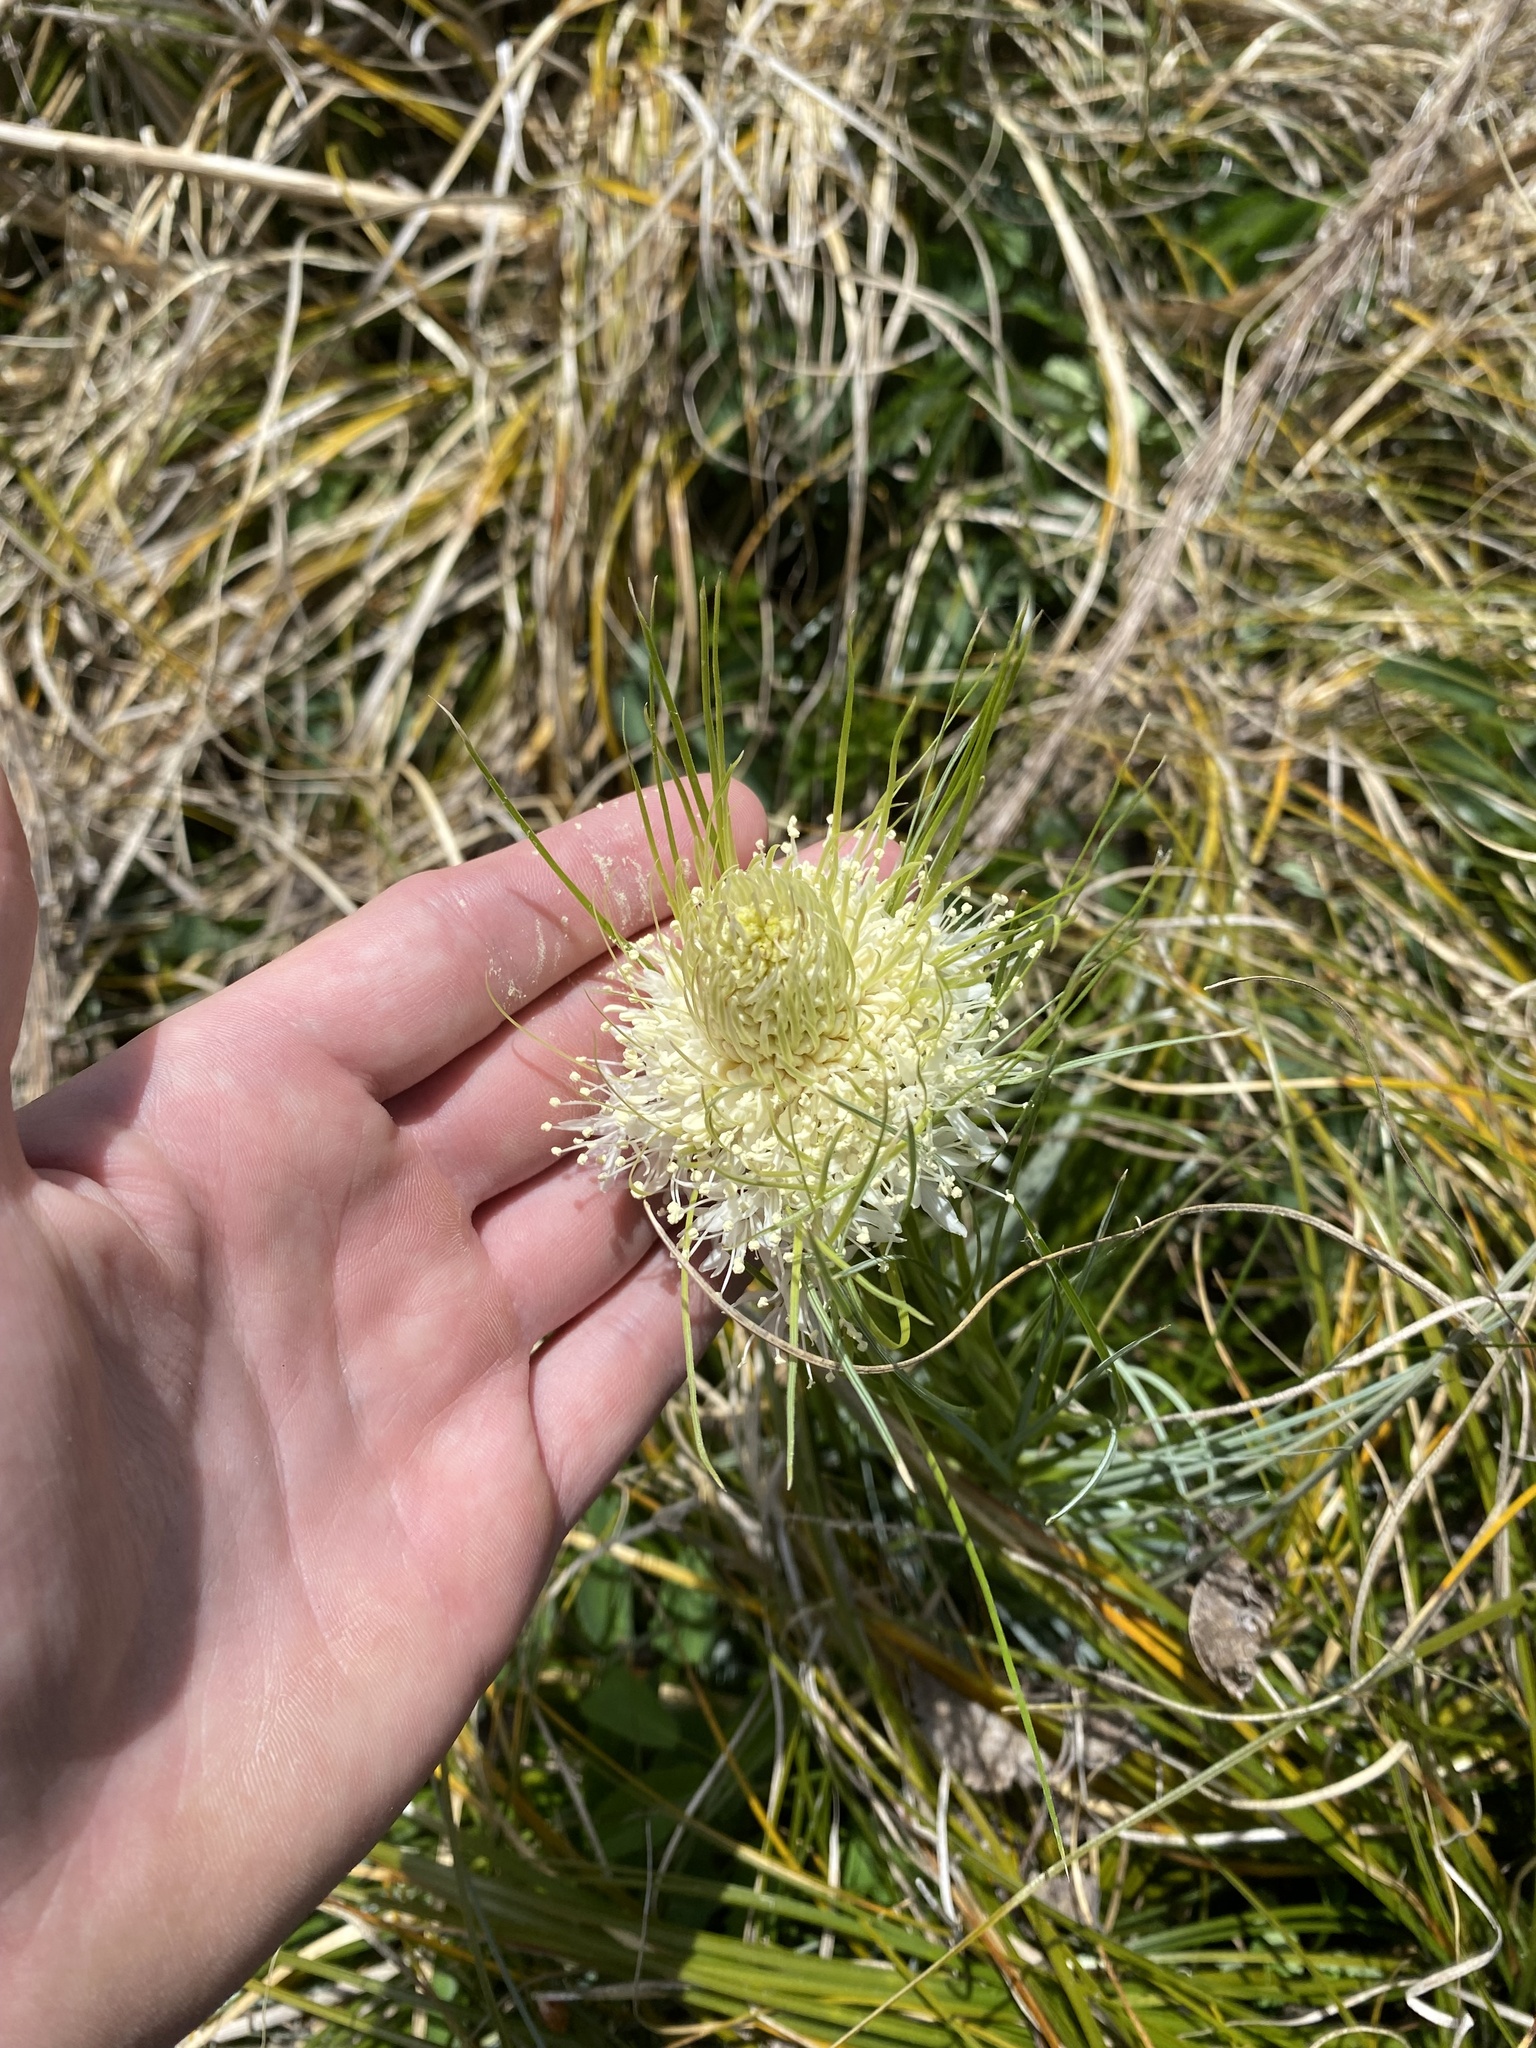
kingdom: Plantae
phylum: Tracheophyta
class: Liliopsida
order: Liliales
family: Melanthiaceae
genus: Xerophyllum
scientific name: Xerophyllum tenax
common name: Bear-grass
